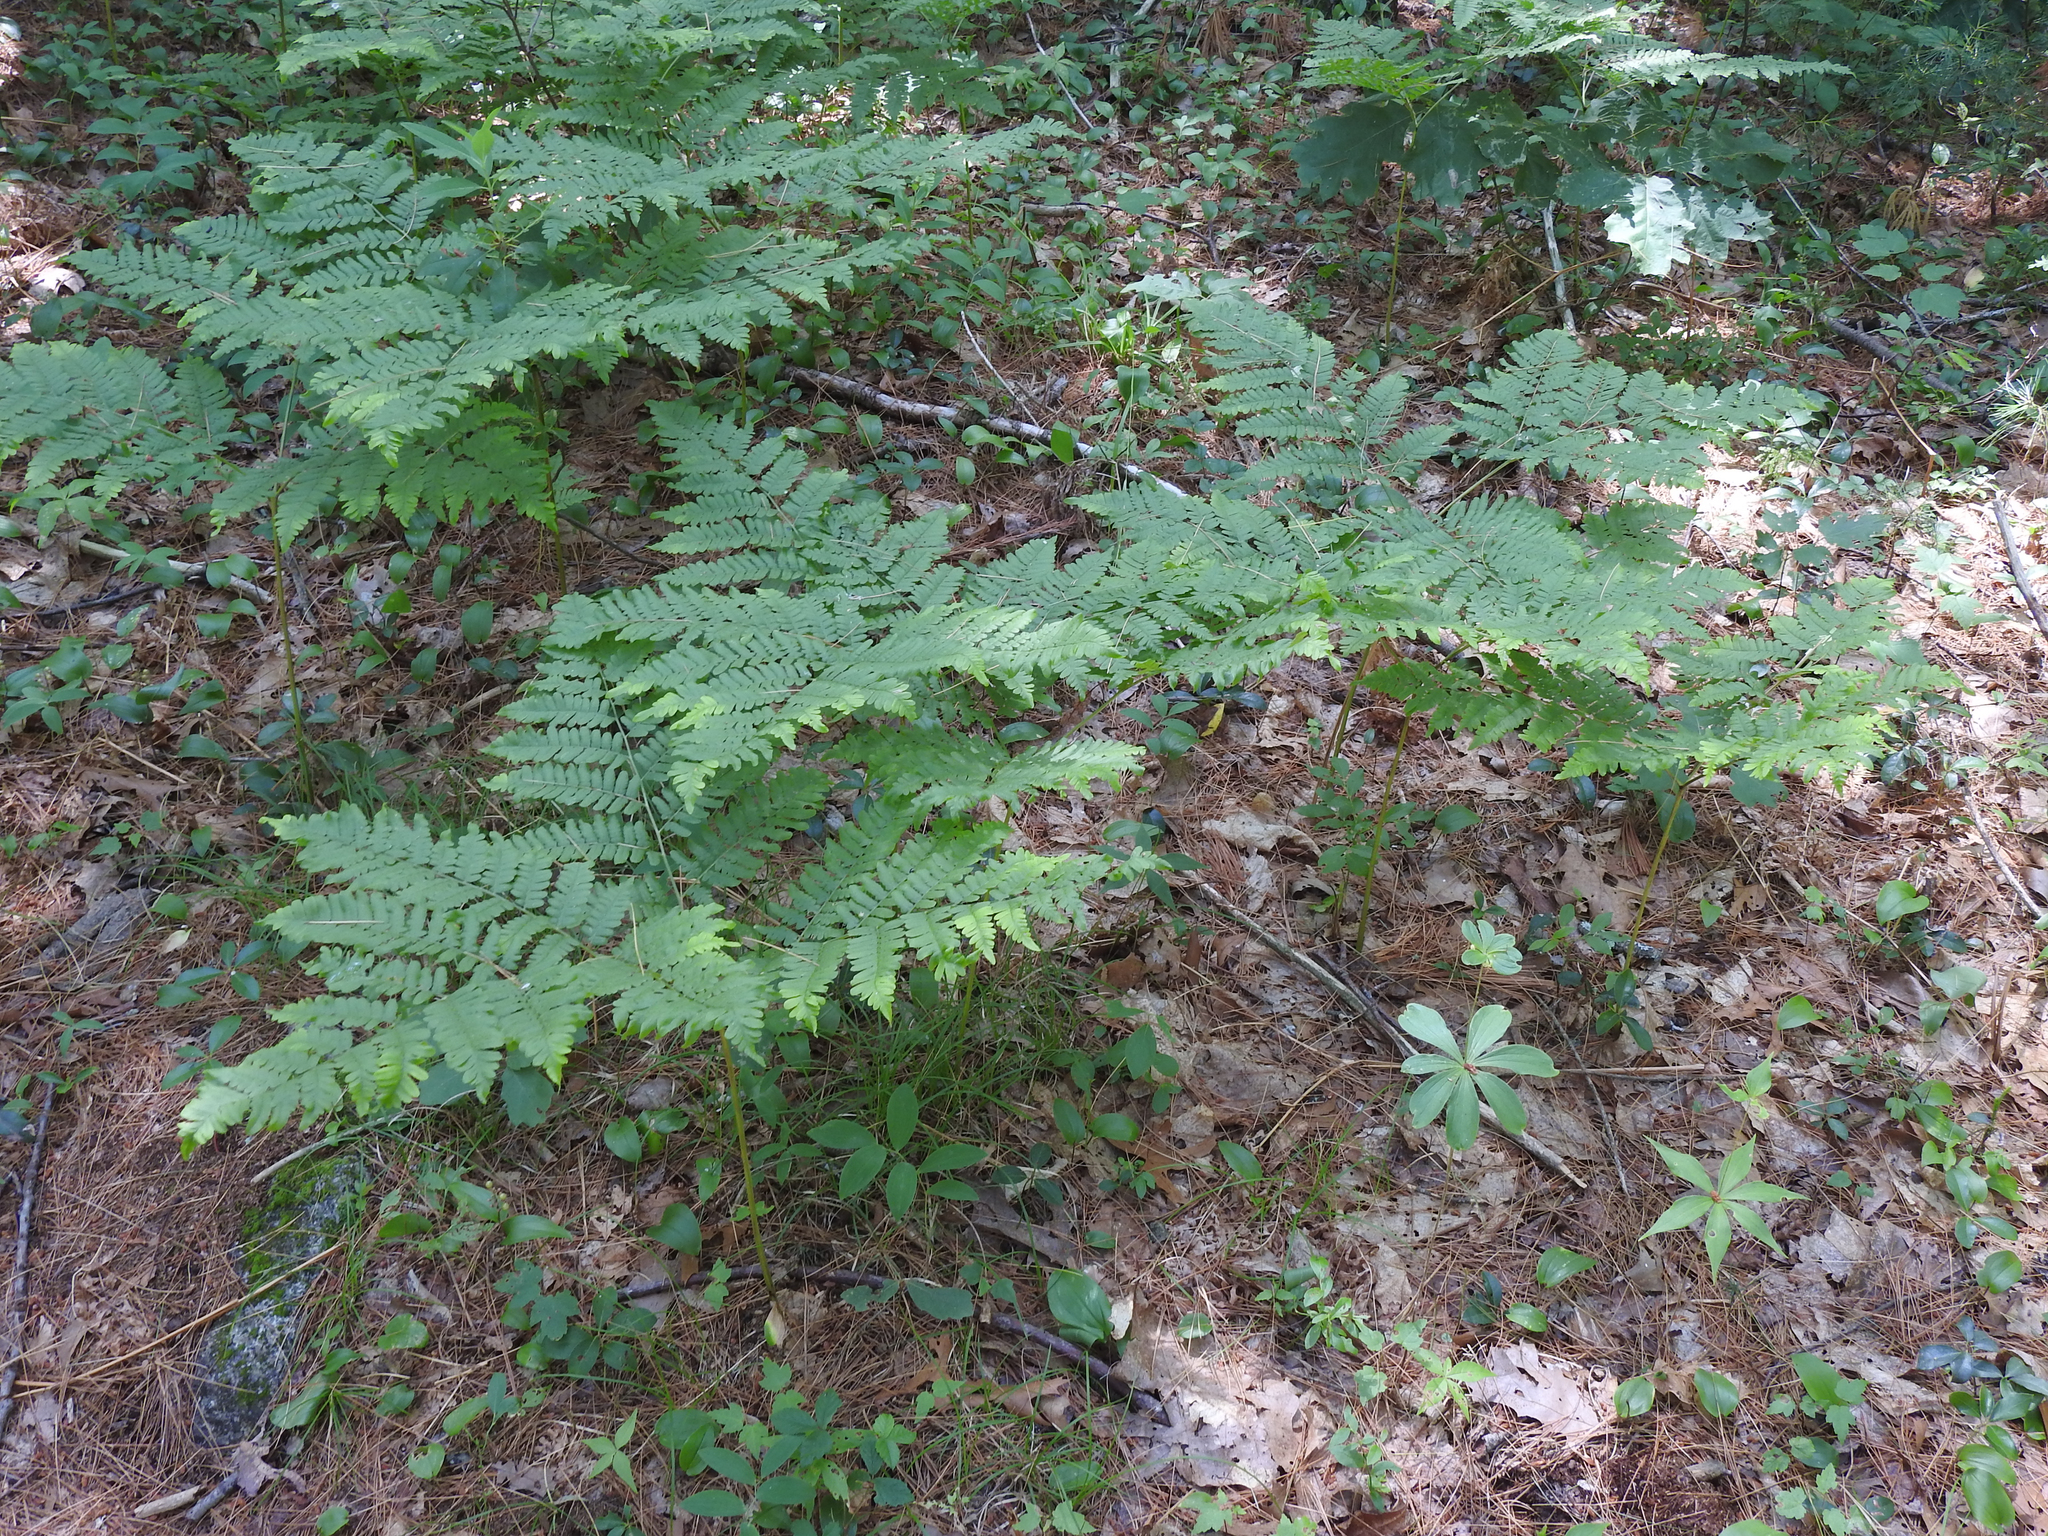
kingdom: Plantae
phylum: Tracheophyta
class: Polypodiopsida
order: Polypodiales
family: Dennstaedtiaceae
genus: Pteridium
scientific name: Pteridium aquilinum
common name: Bracken
